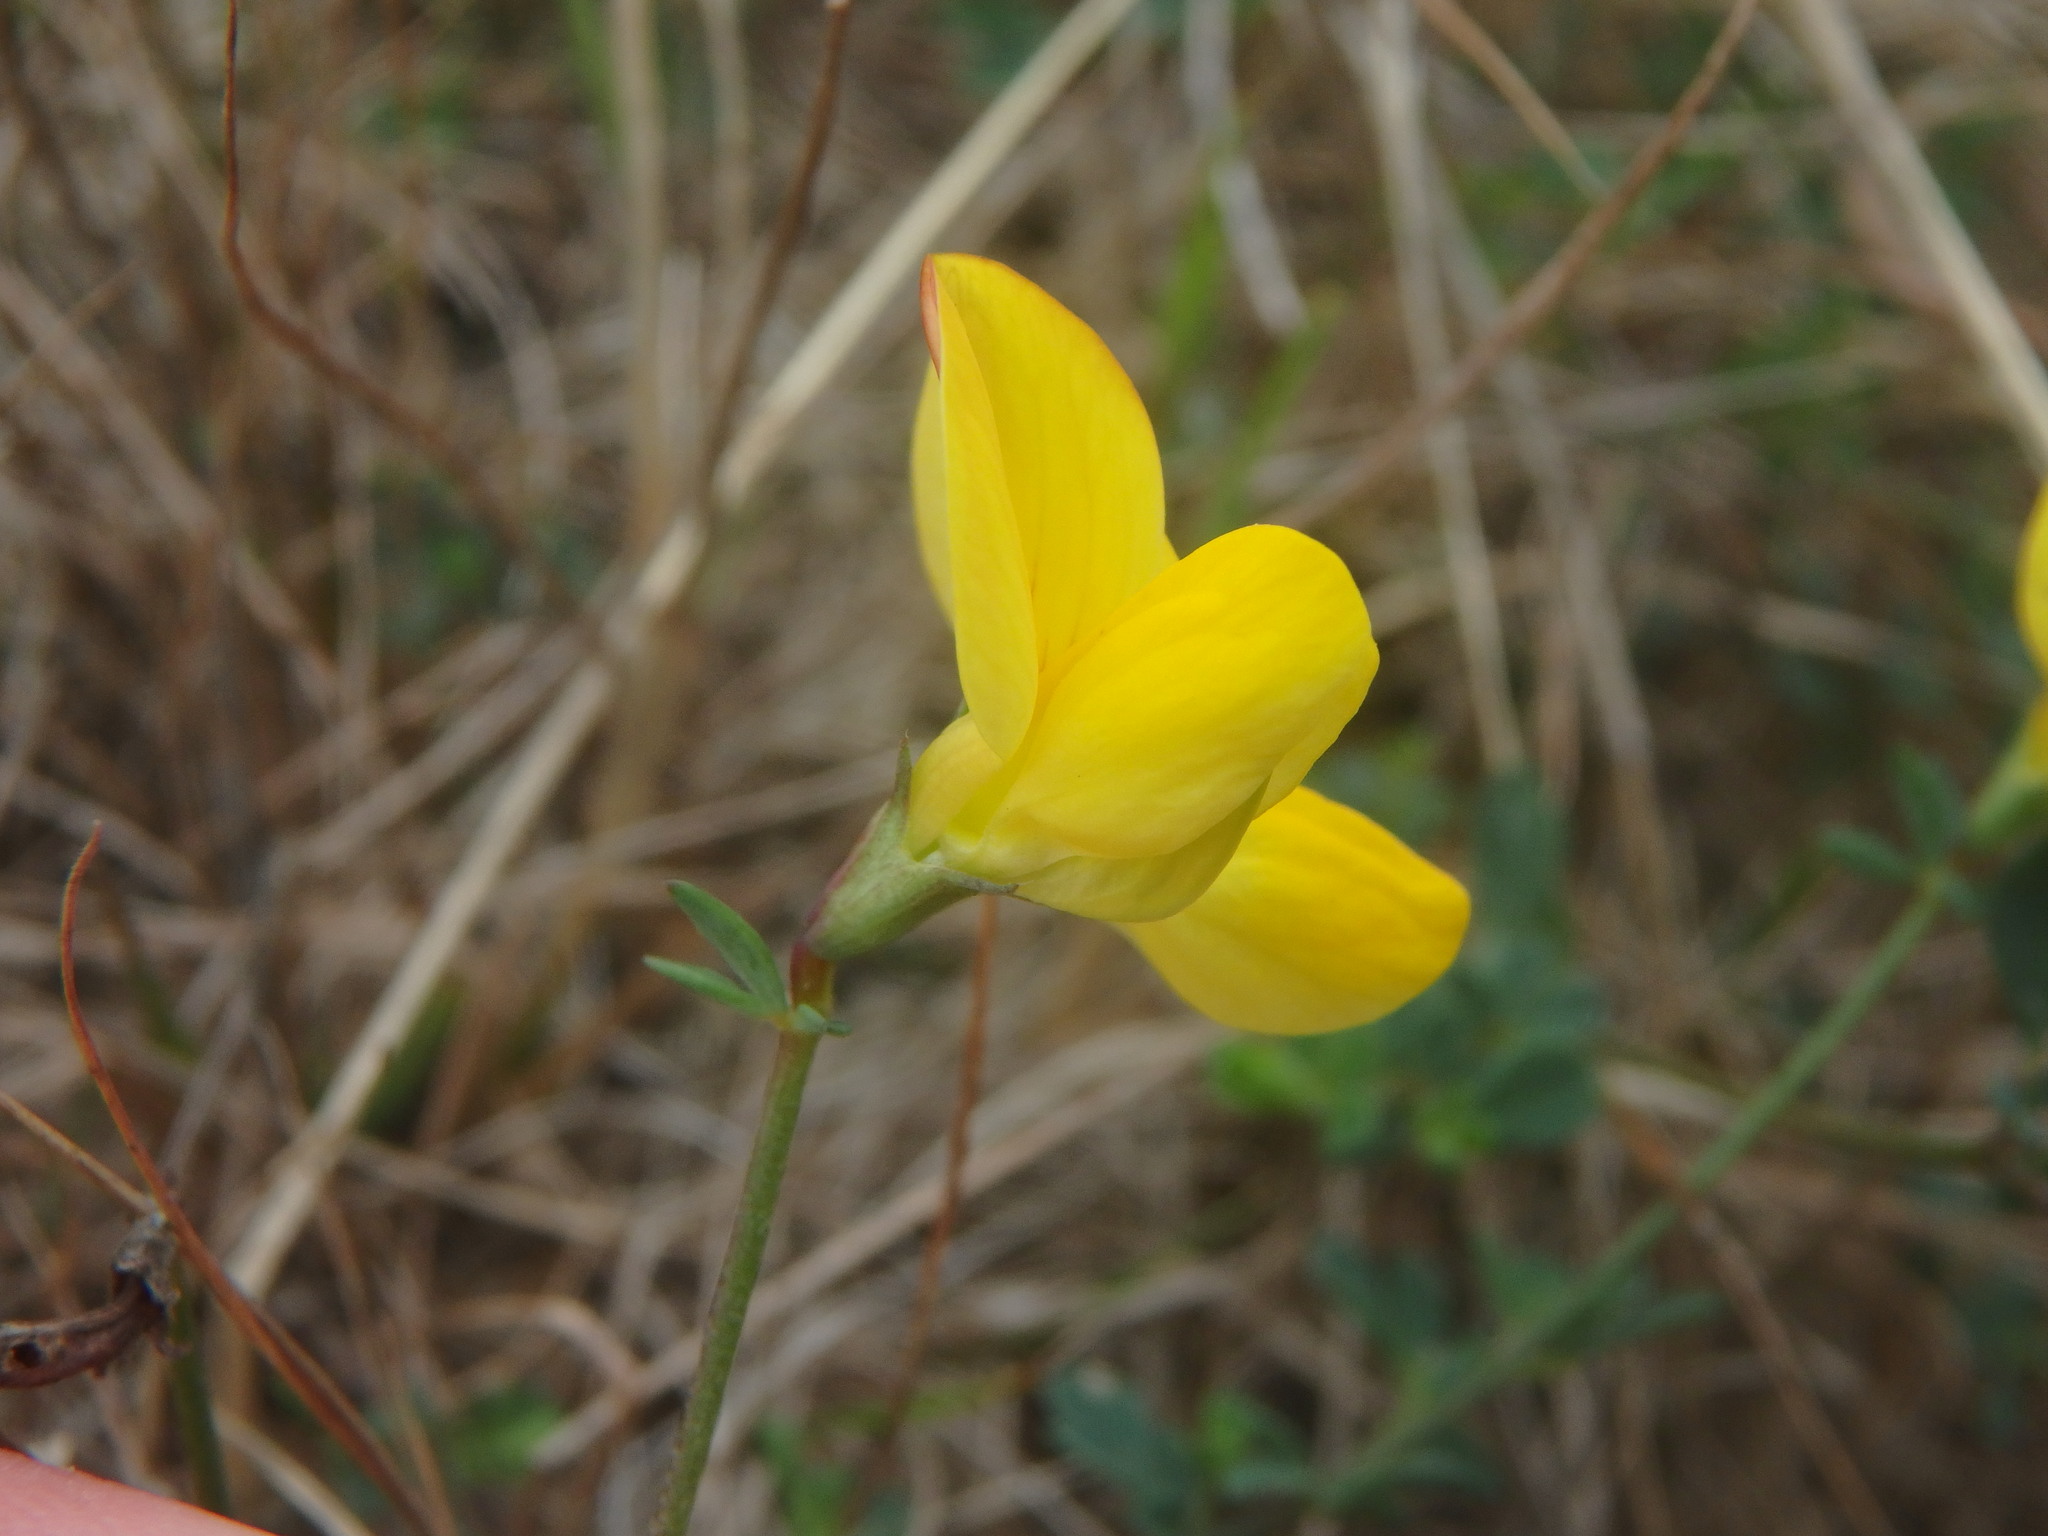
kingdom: Plantae
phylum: Tracheophyta
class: Magnoliopsida
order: Fabales
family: Fabaceae
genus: Lotus
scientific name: Lotus corniculatus
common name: Common bird's-foot-trefoil
